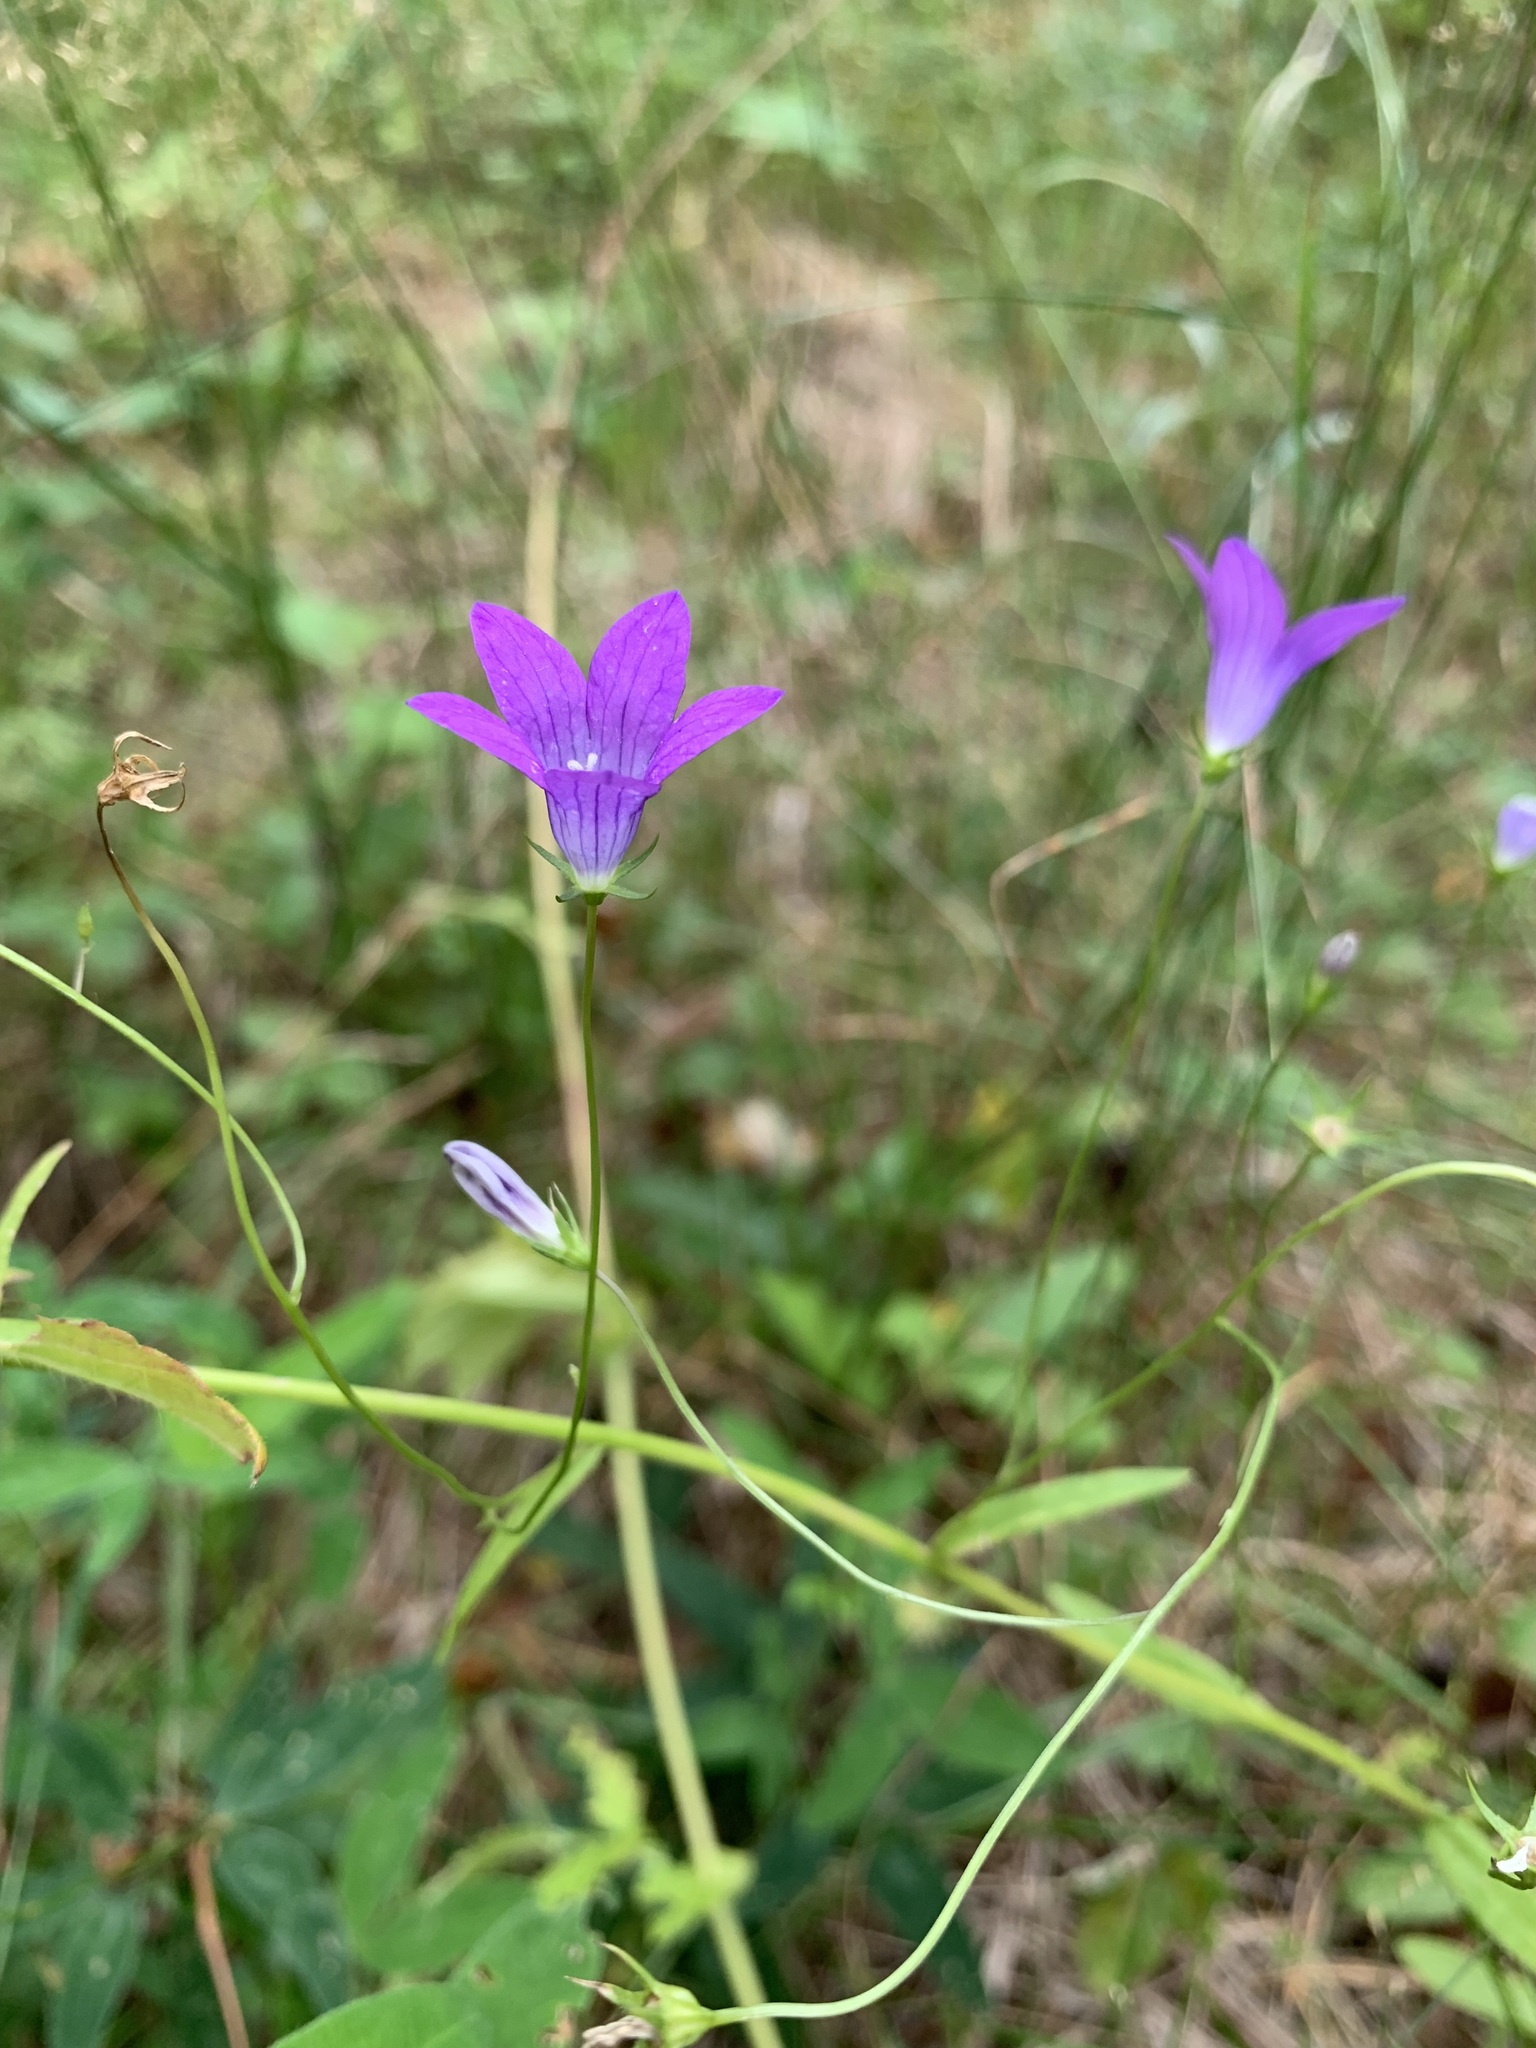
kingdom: Plantae
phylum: Tracheophyta
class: Magnoliopsida
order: Asterales
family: Campanulaceae
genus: Campanula
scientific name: Campanula patula
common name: Spreading bellflower
